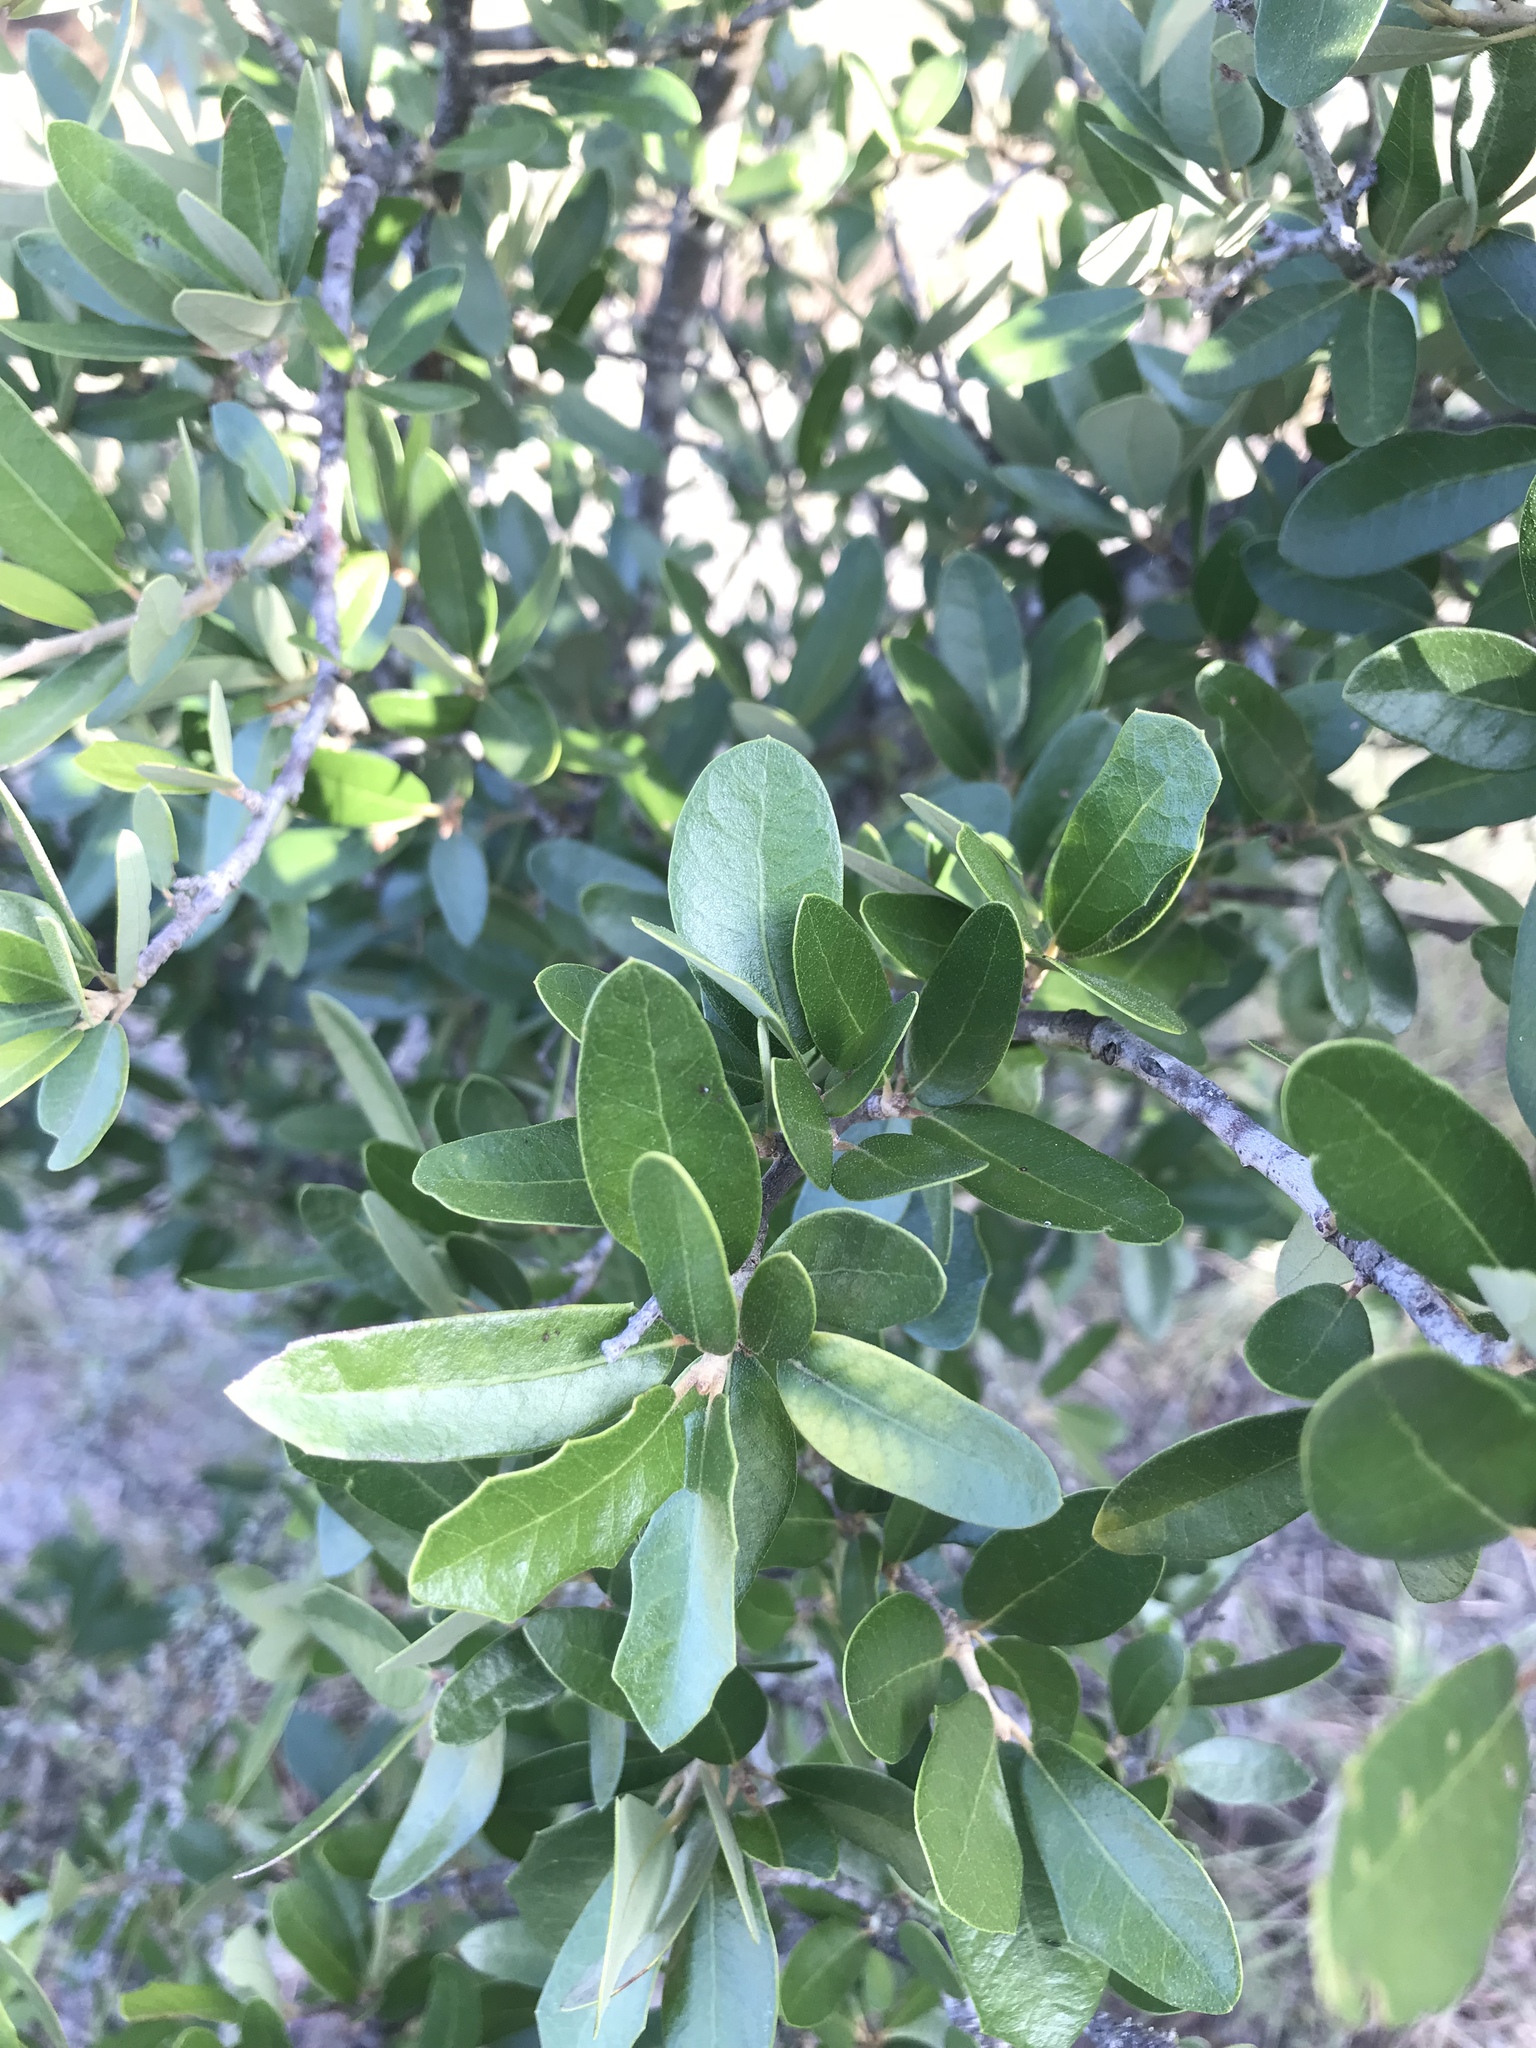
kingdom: Plantae
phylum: Tracheophyta
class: Magnoliopsida
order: Fagales
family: Fagaceae
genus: Quercus
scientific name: Quercus fusiformis
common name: Texas live oak
